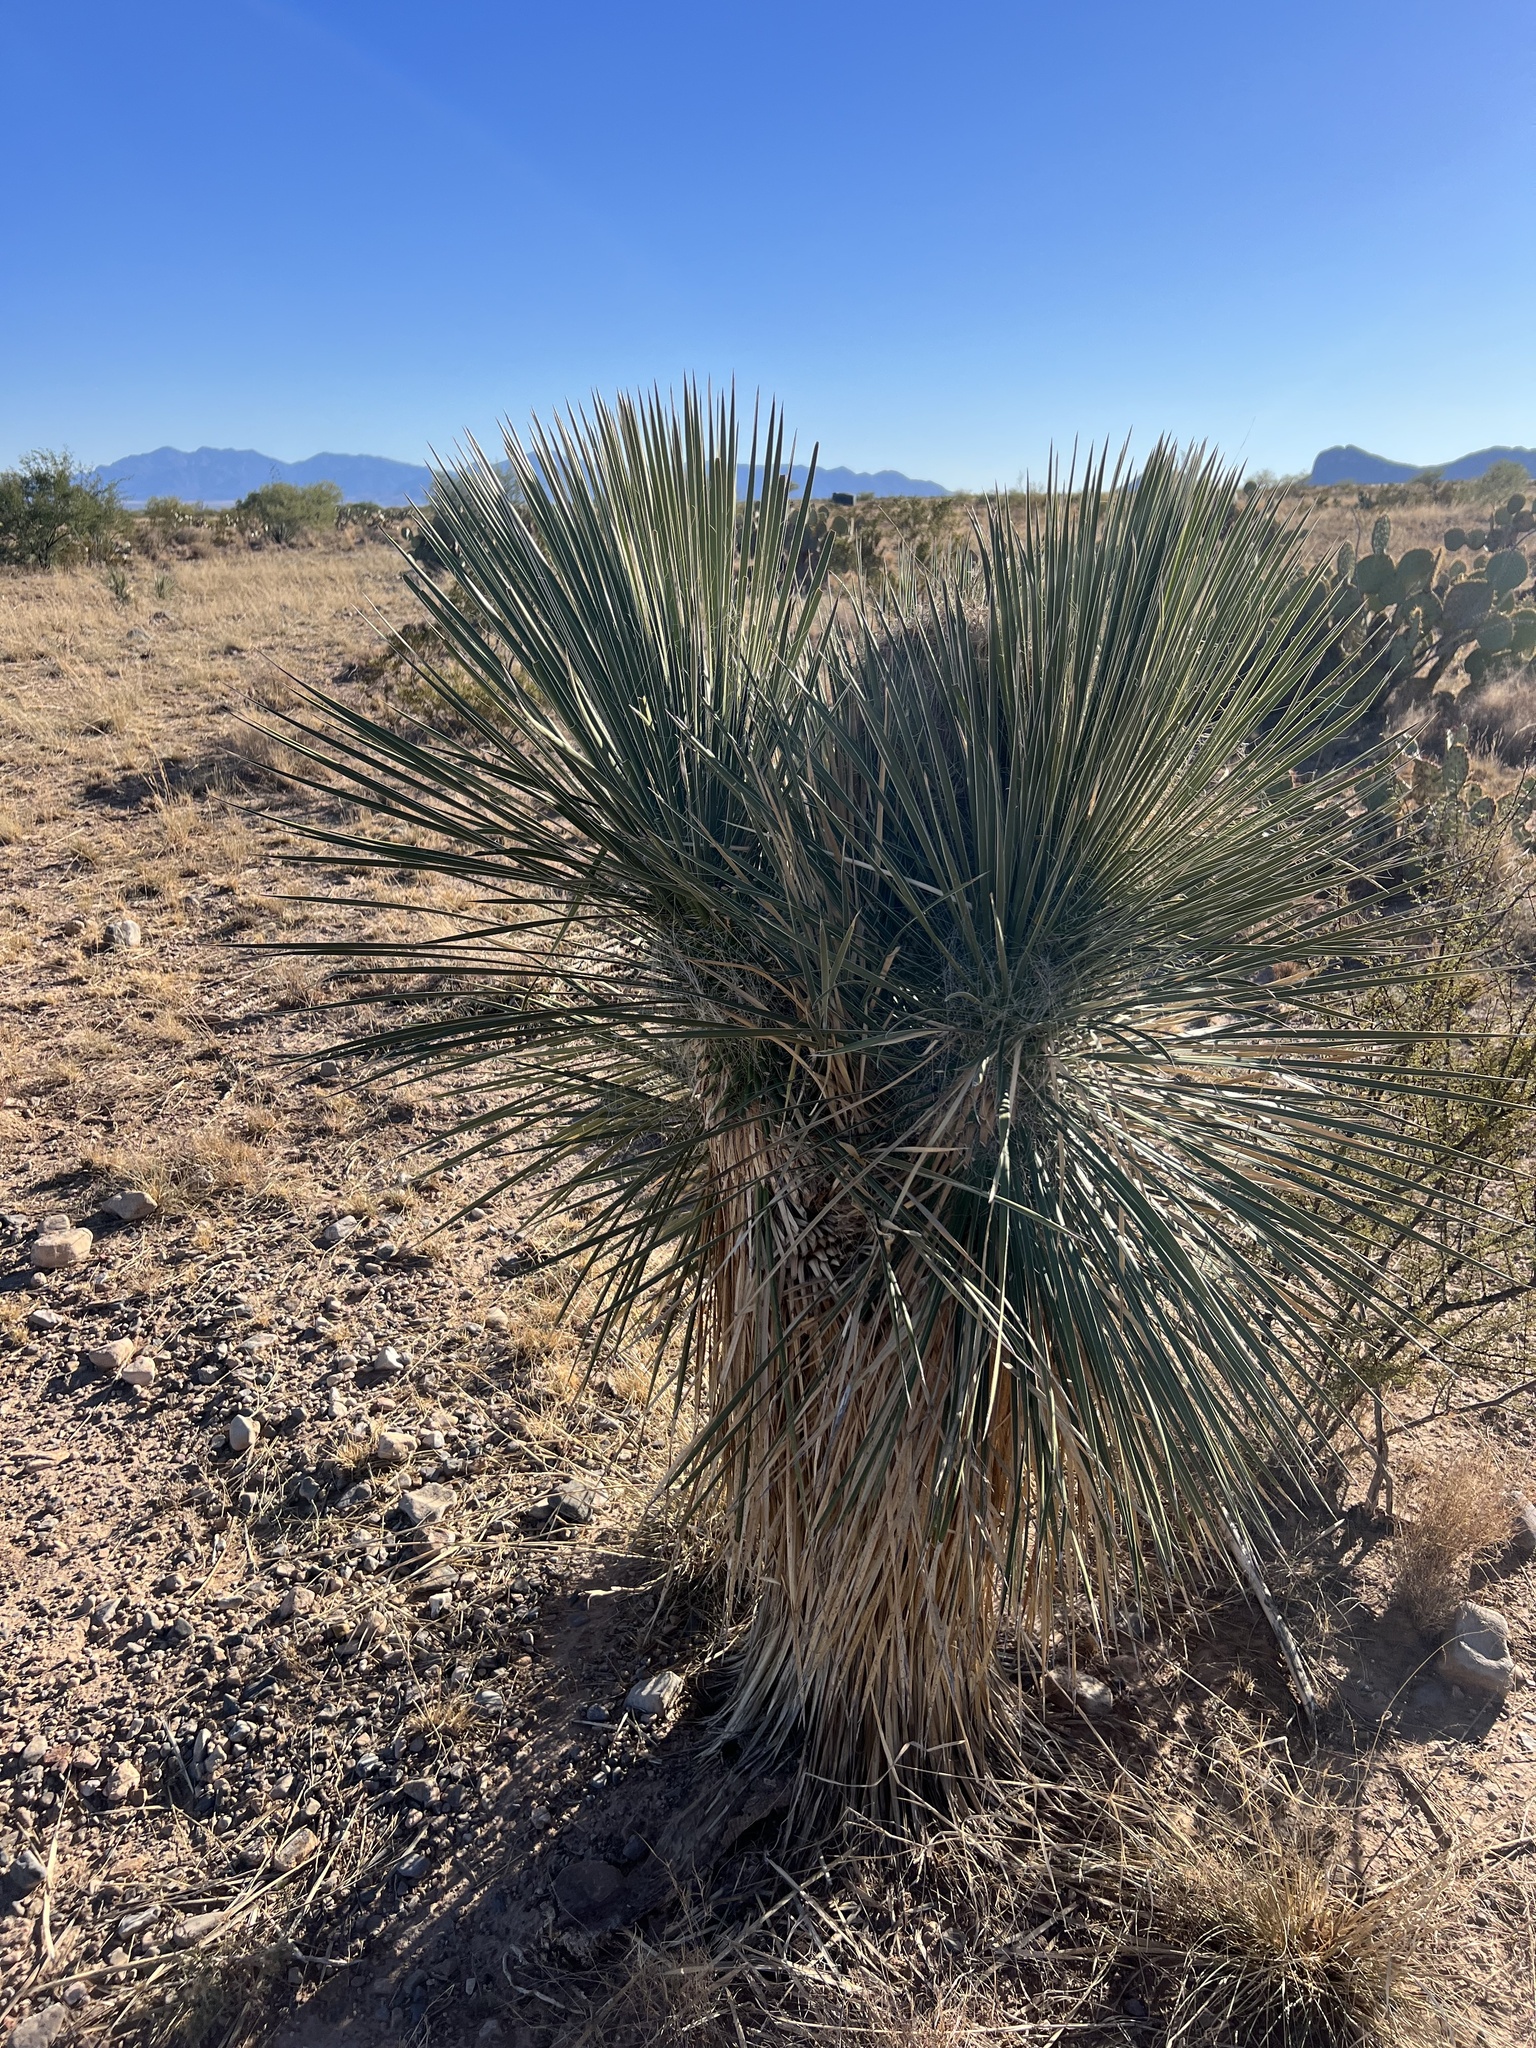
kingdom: Plantae
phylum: Tracheophyta
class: Liliopsida
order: Asparagales
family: Asparagaceae
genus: Yucca
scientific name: Yucca elata
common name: Palmella
